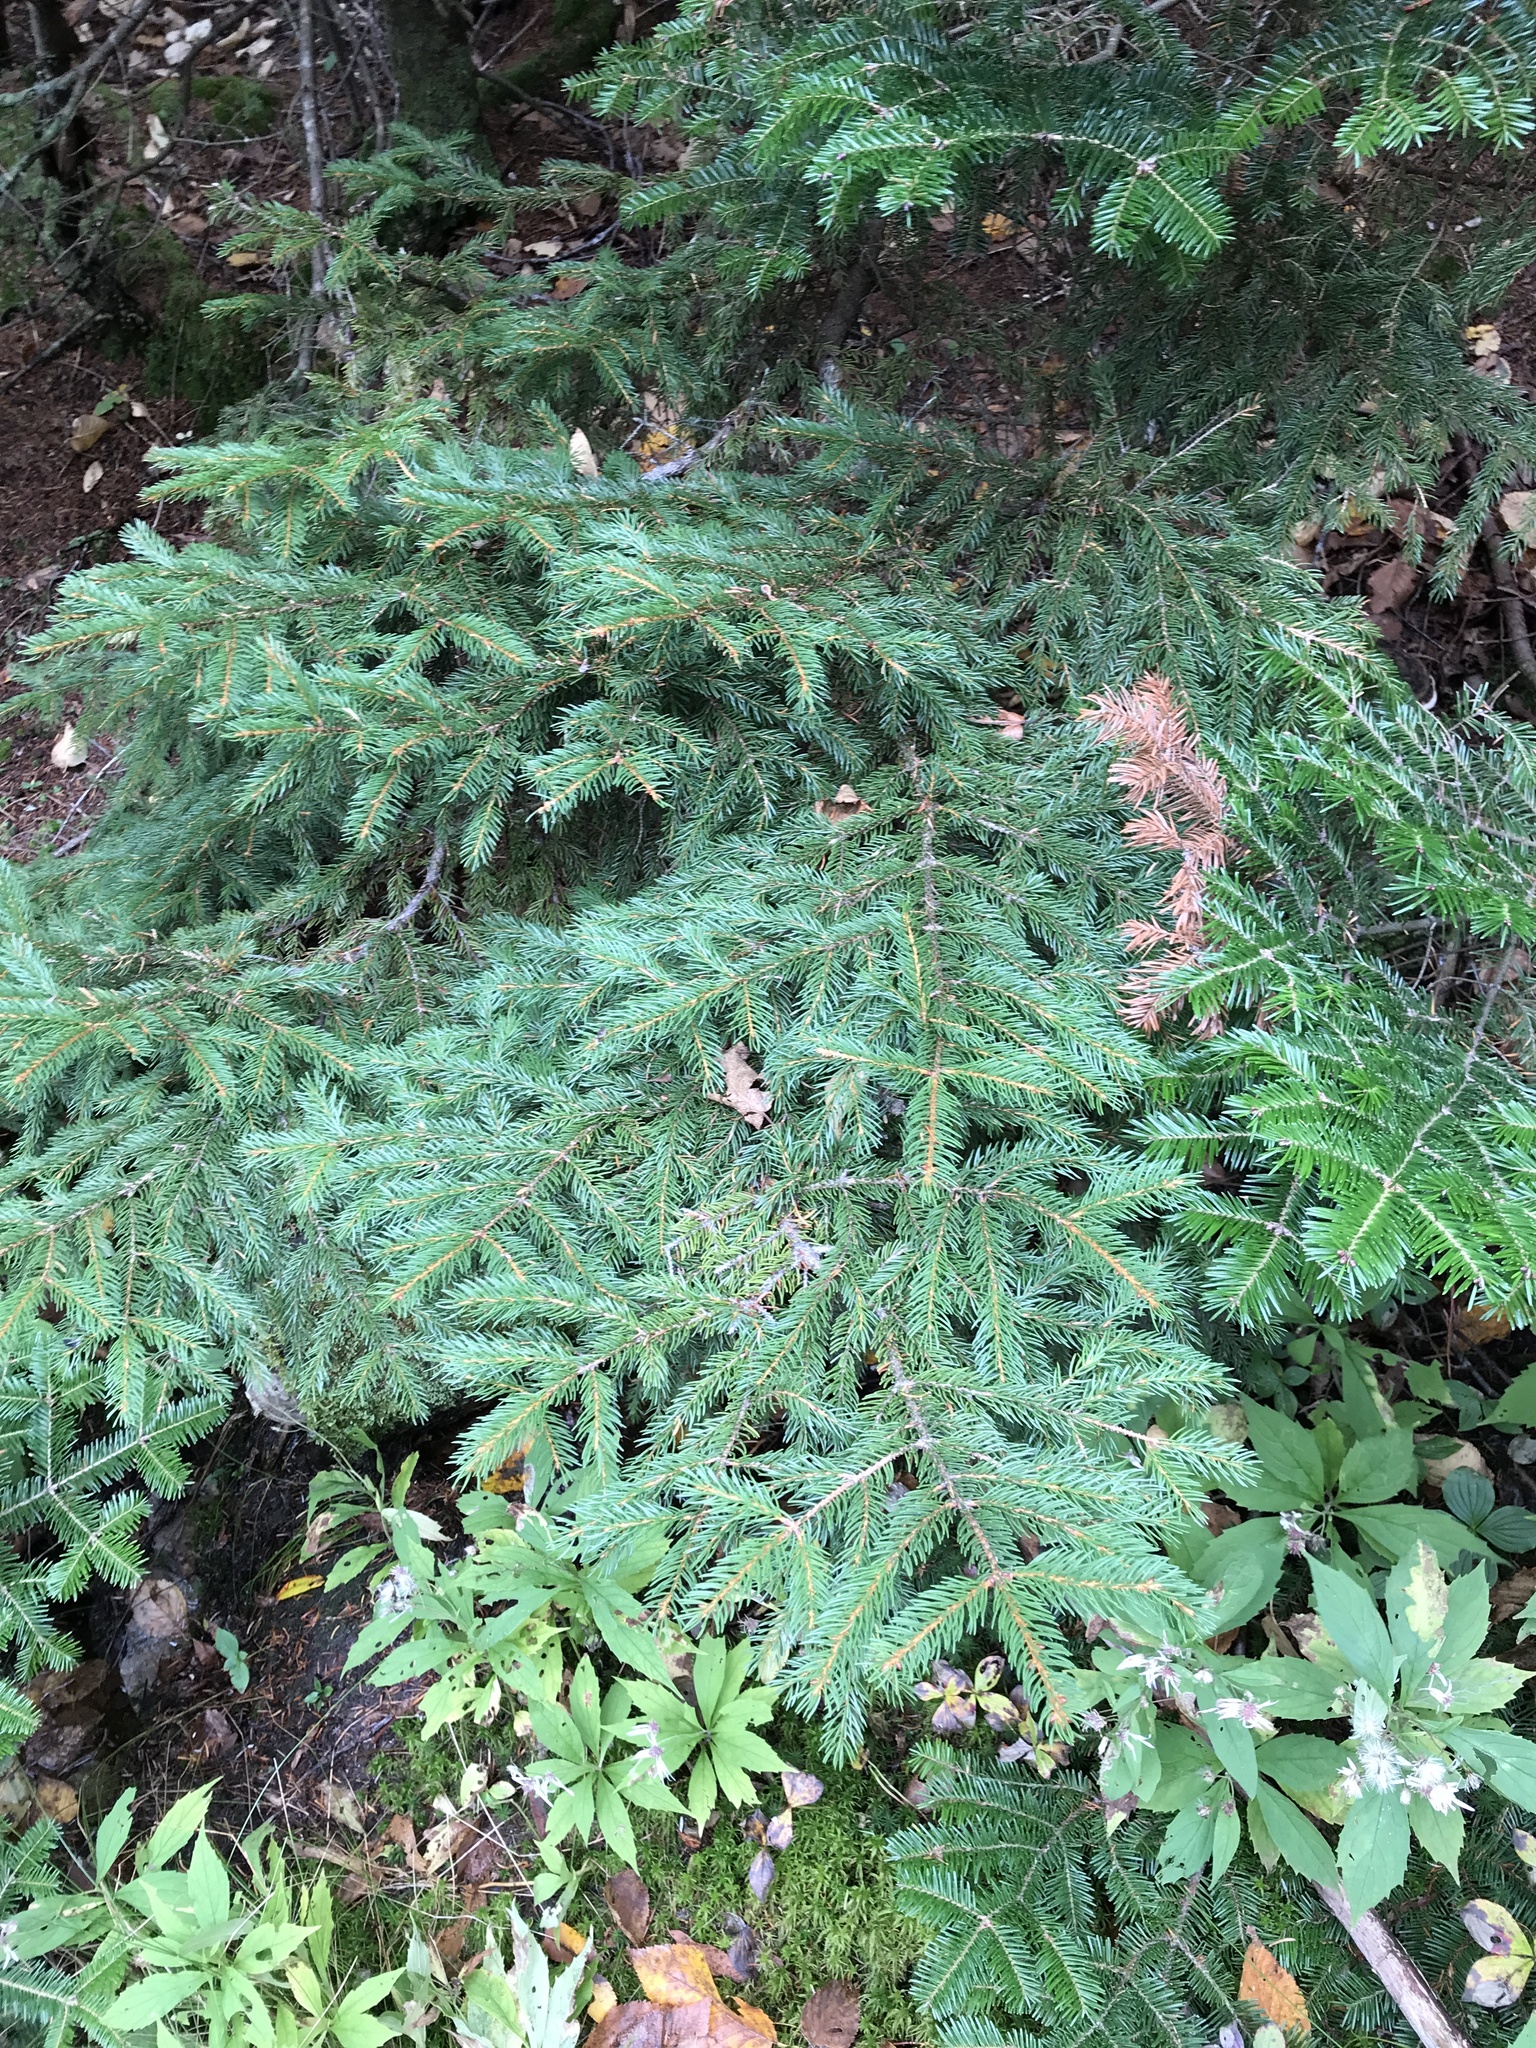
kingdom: Plantae
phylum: Tracheophyta
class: Pinopsida
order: Pinales
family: Pinaceae
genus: Picea
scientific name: Picea rubens
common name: Red spruce
